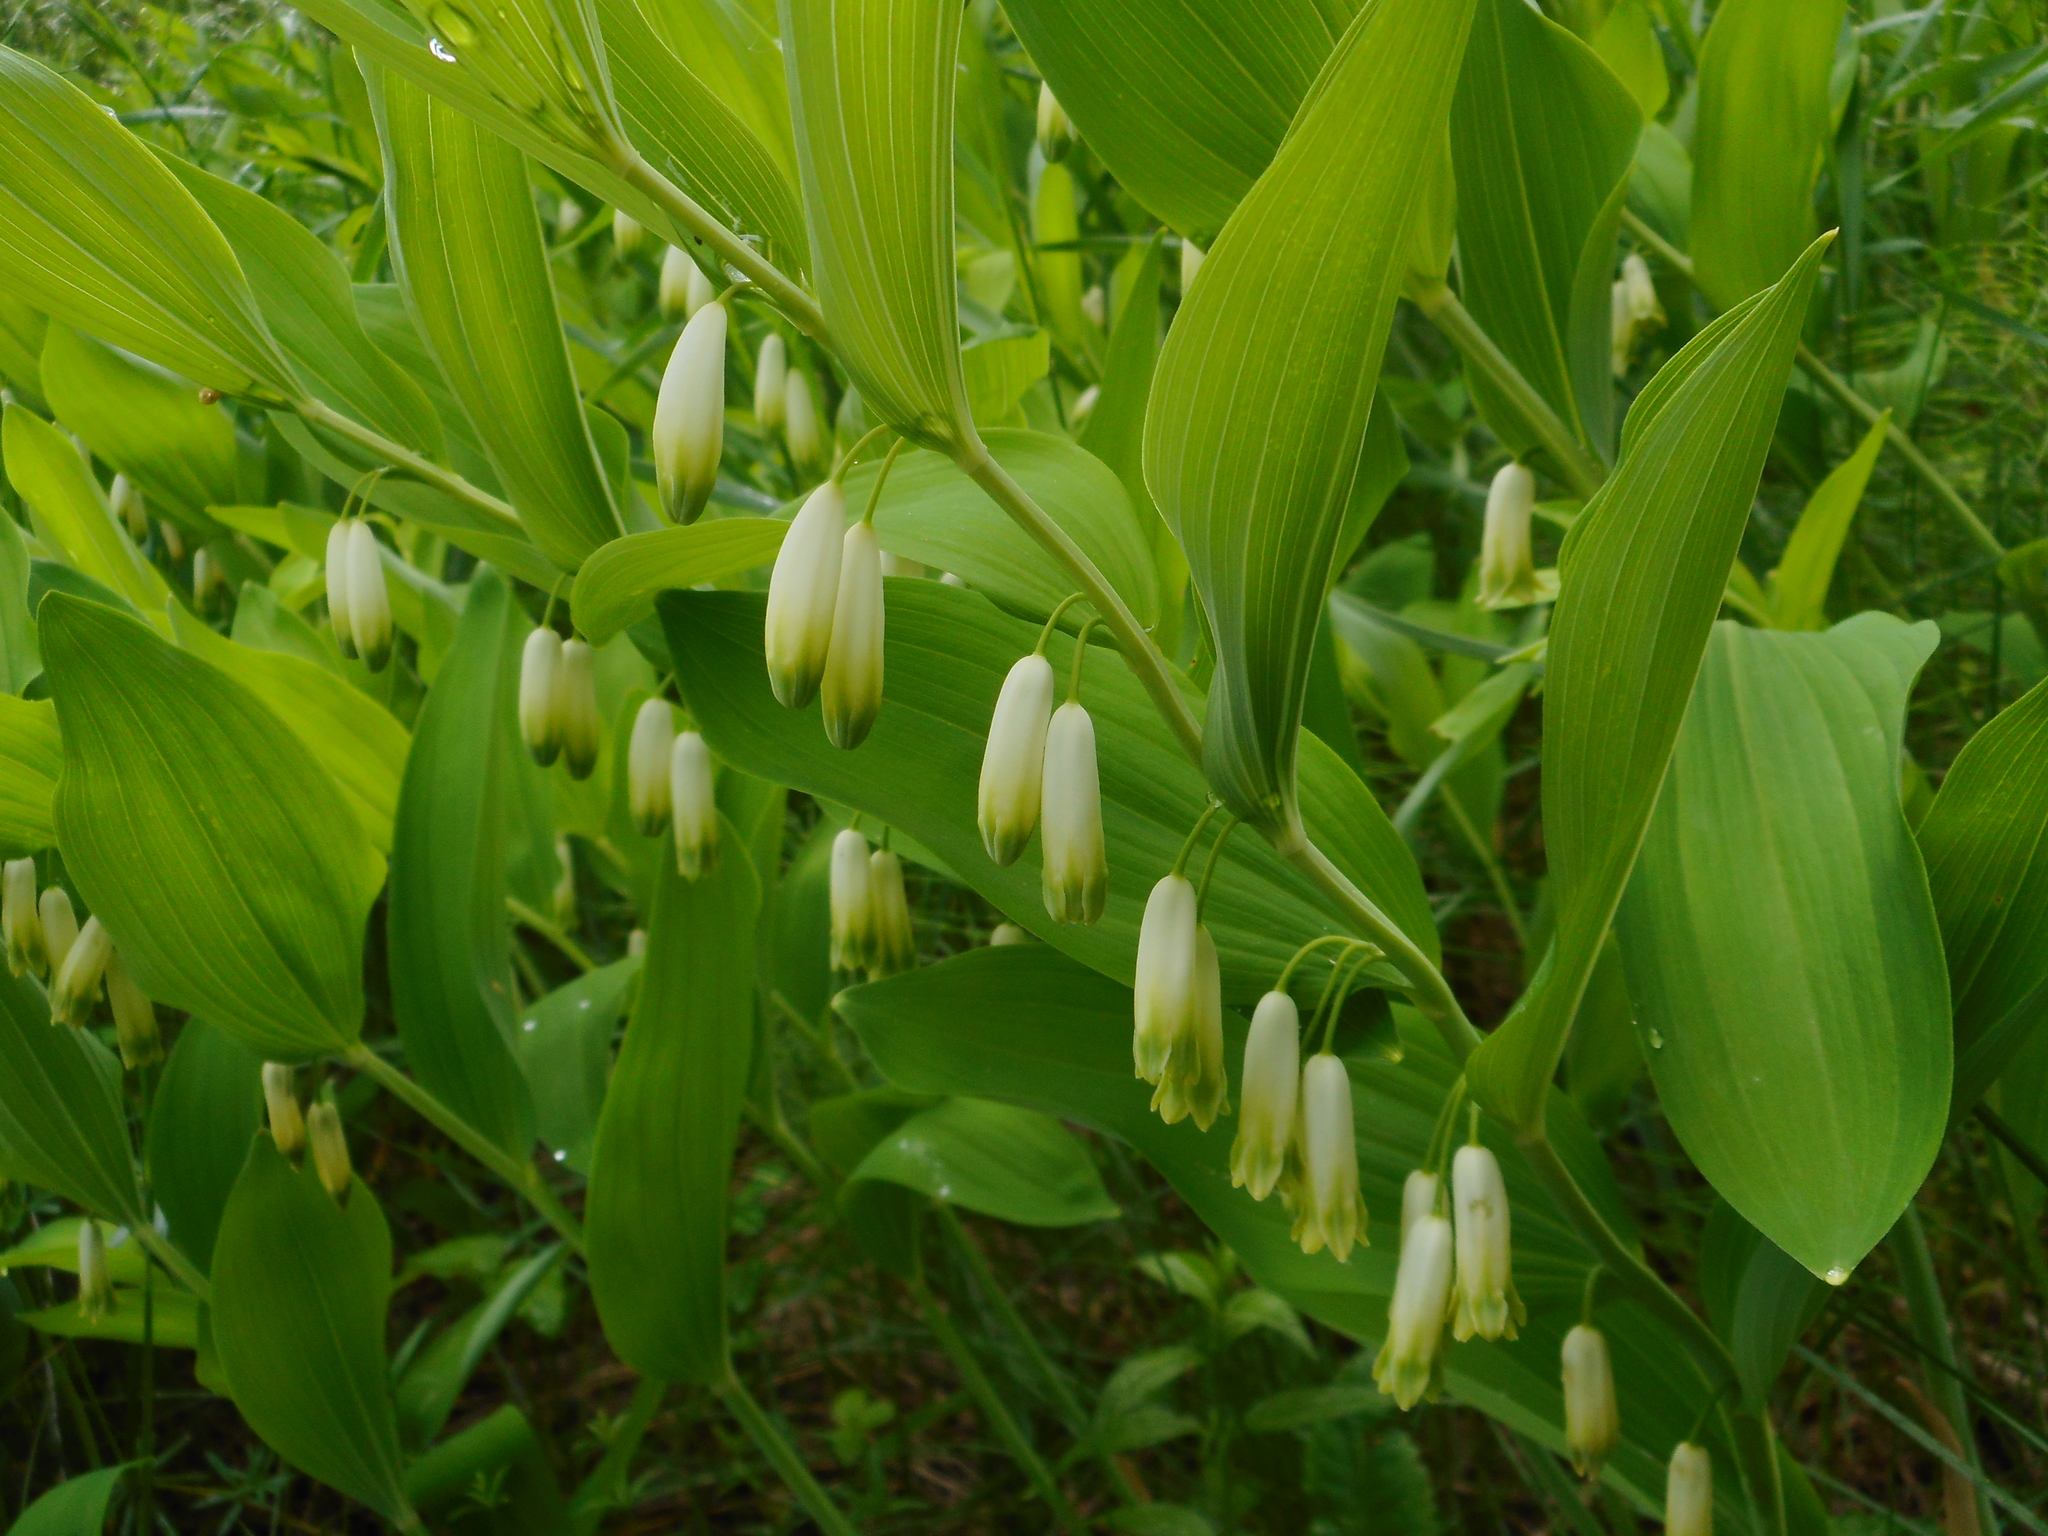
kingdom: Plantae
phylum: Tracheophyta
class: Liliopsida
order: Asparagales
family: Asparagaceae
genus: Polygonatum
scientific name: Polygonatum multiflorum
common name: Solomon's-seal
